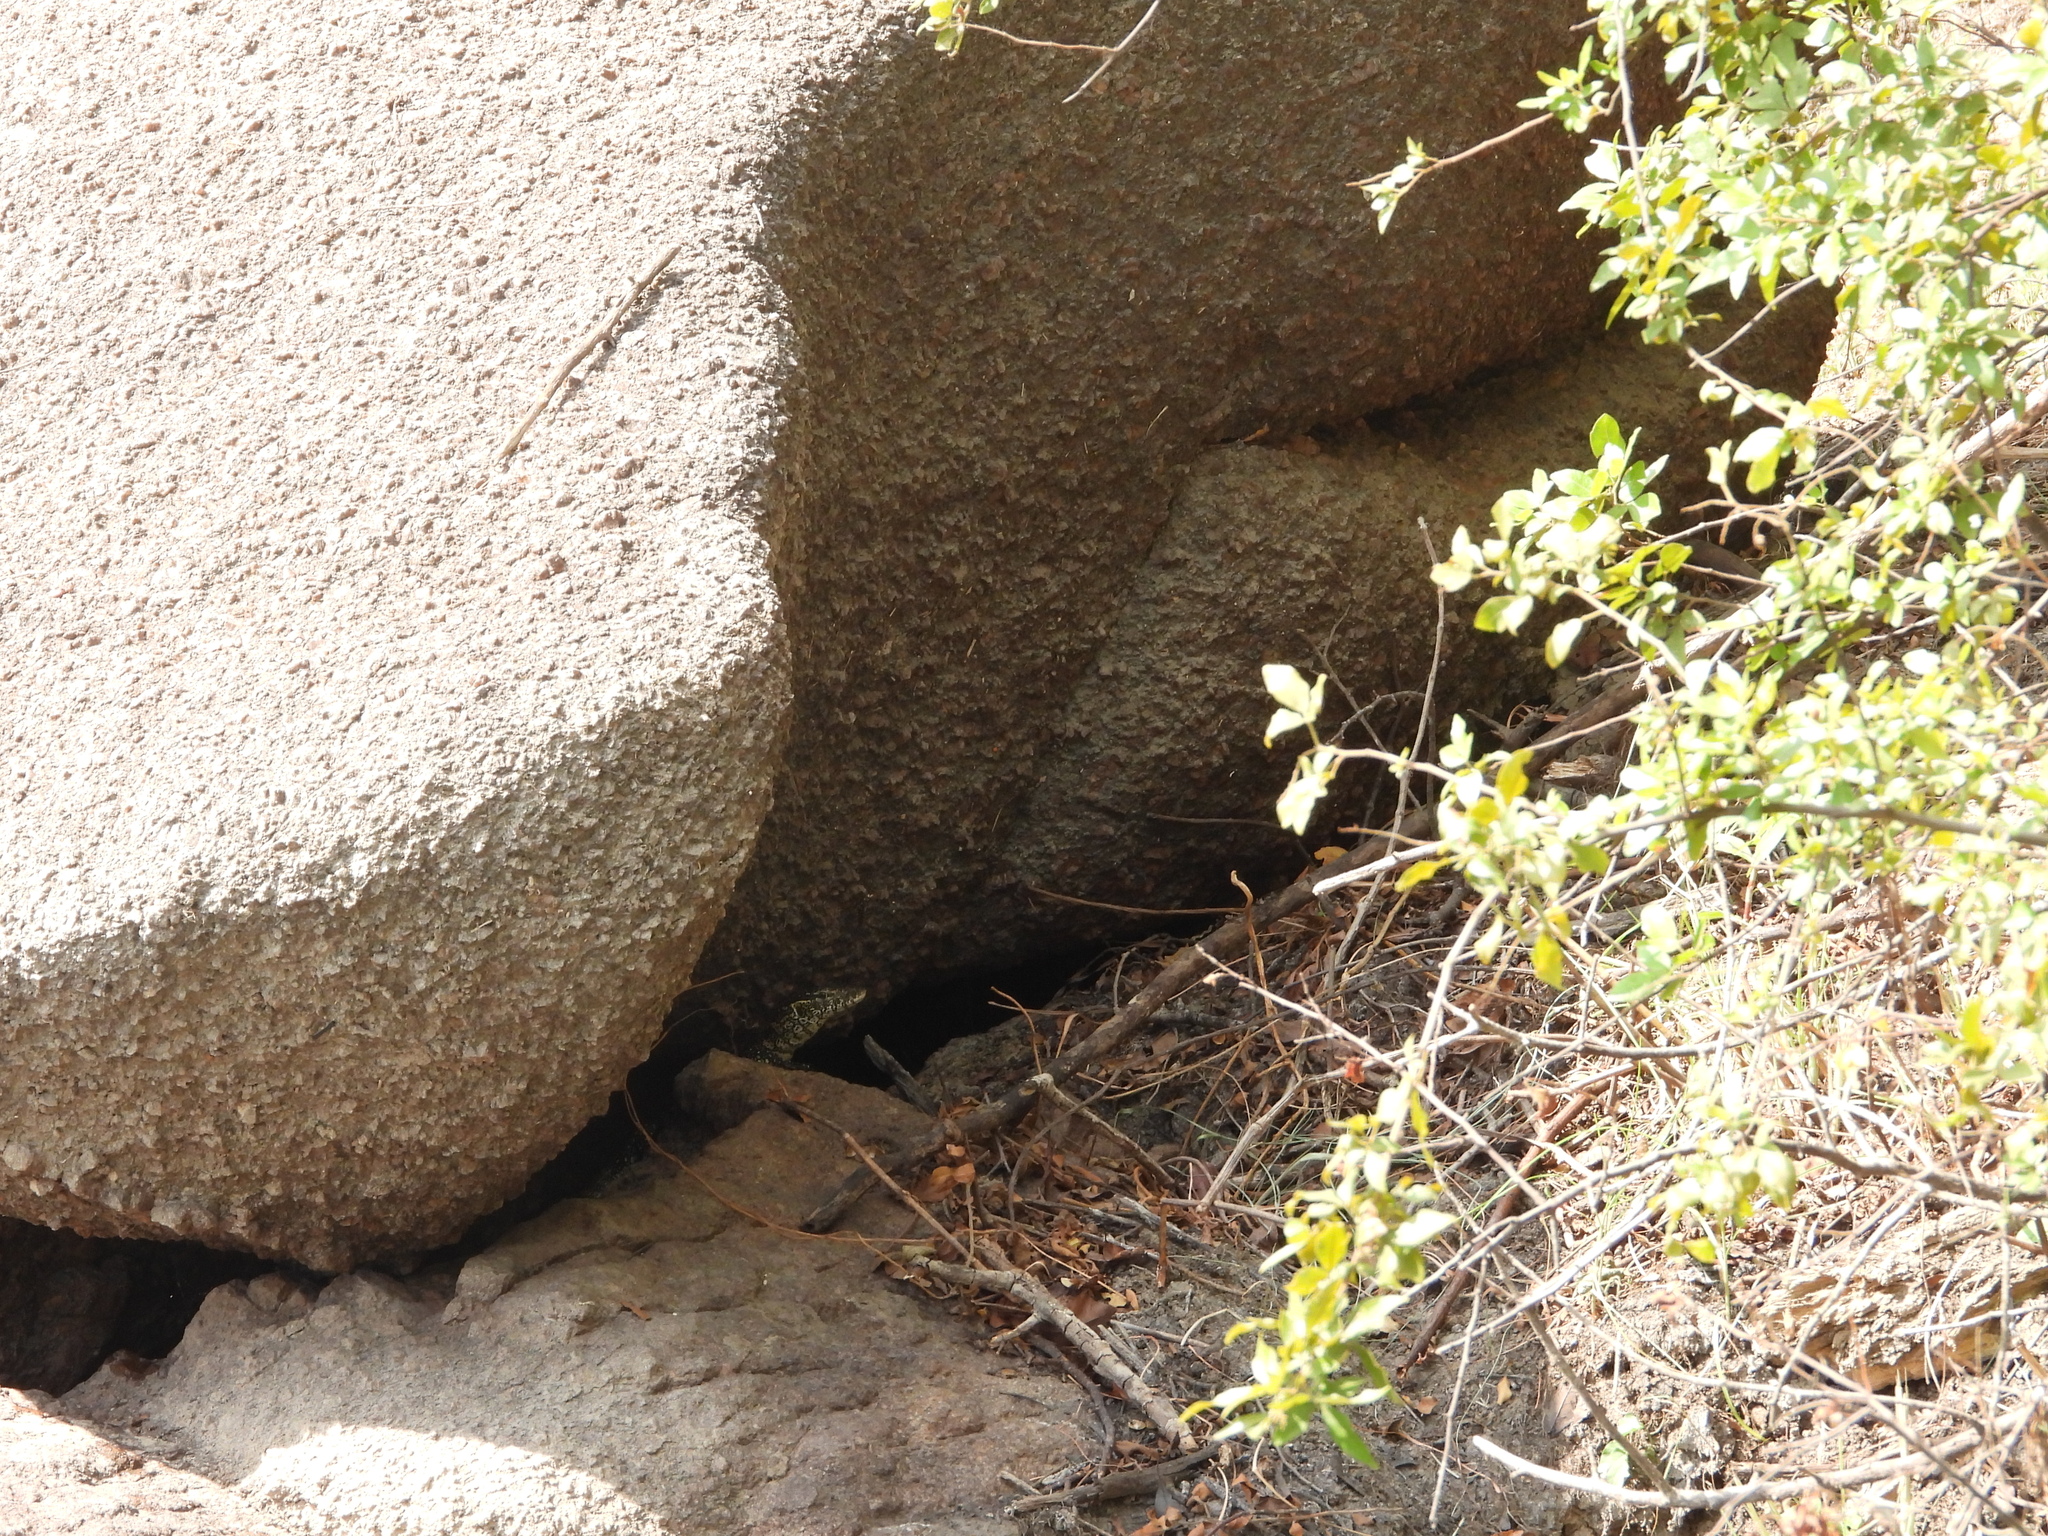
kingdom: Animalia
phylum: Chordata
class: Squamata
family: Varanidae
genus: Varanus
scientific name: Varanus niloticus
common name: Nile monitor
